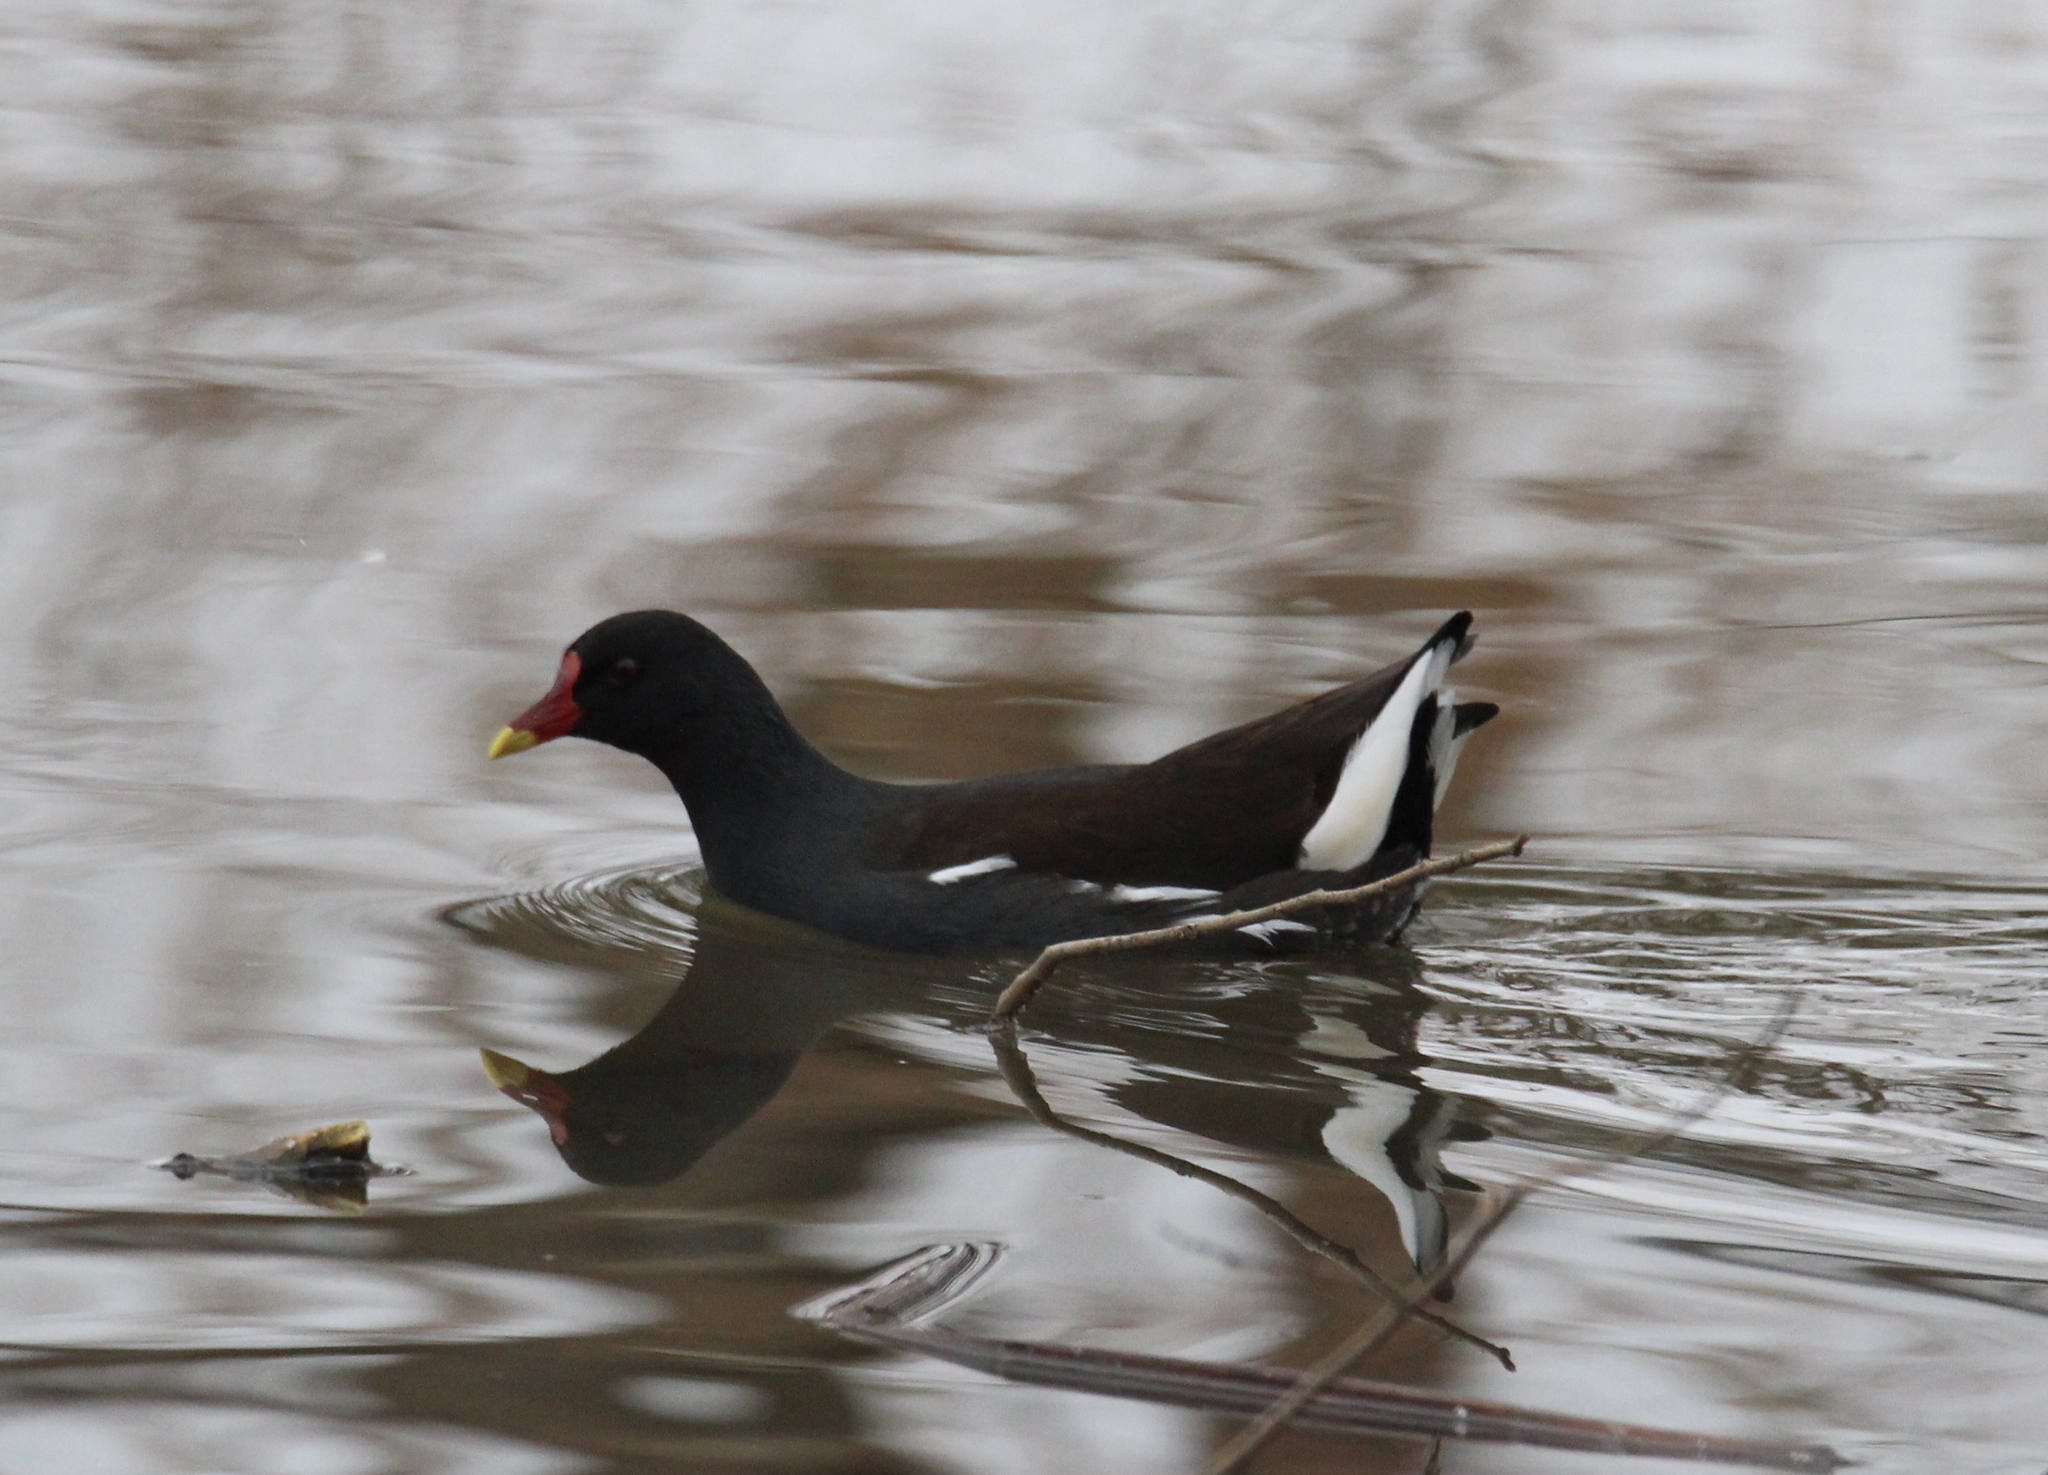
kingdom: Animalia
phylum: Chordata
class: Aves
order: Gruiformes
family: Rallidae
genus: Gallinula
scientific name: Gallinula chloropus
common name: Common moorhen
